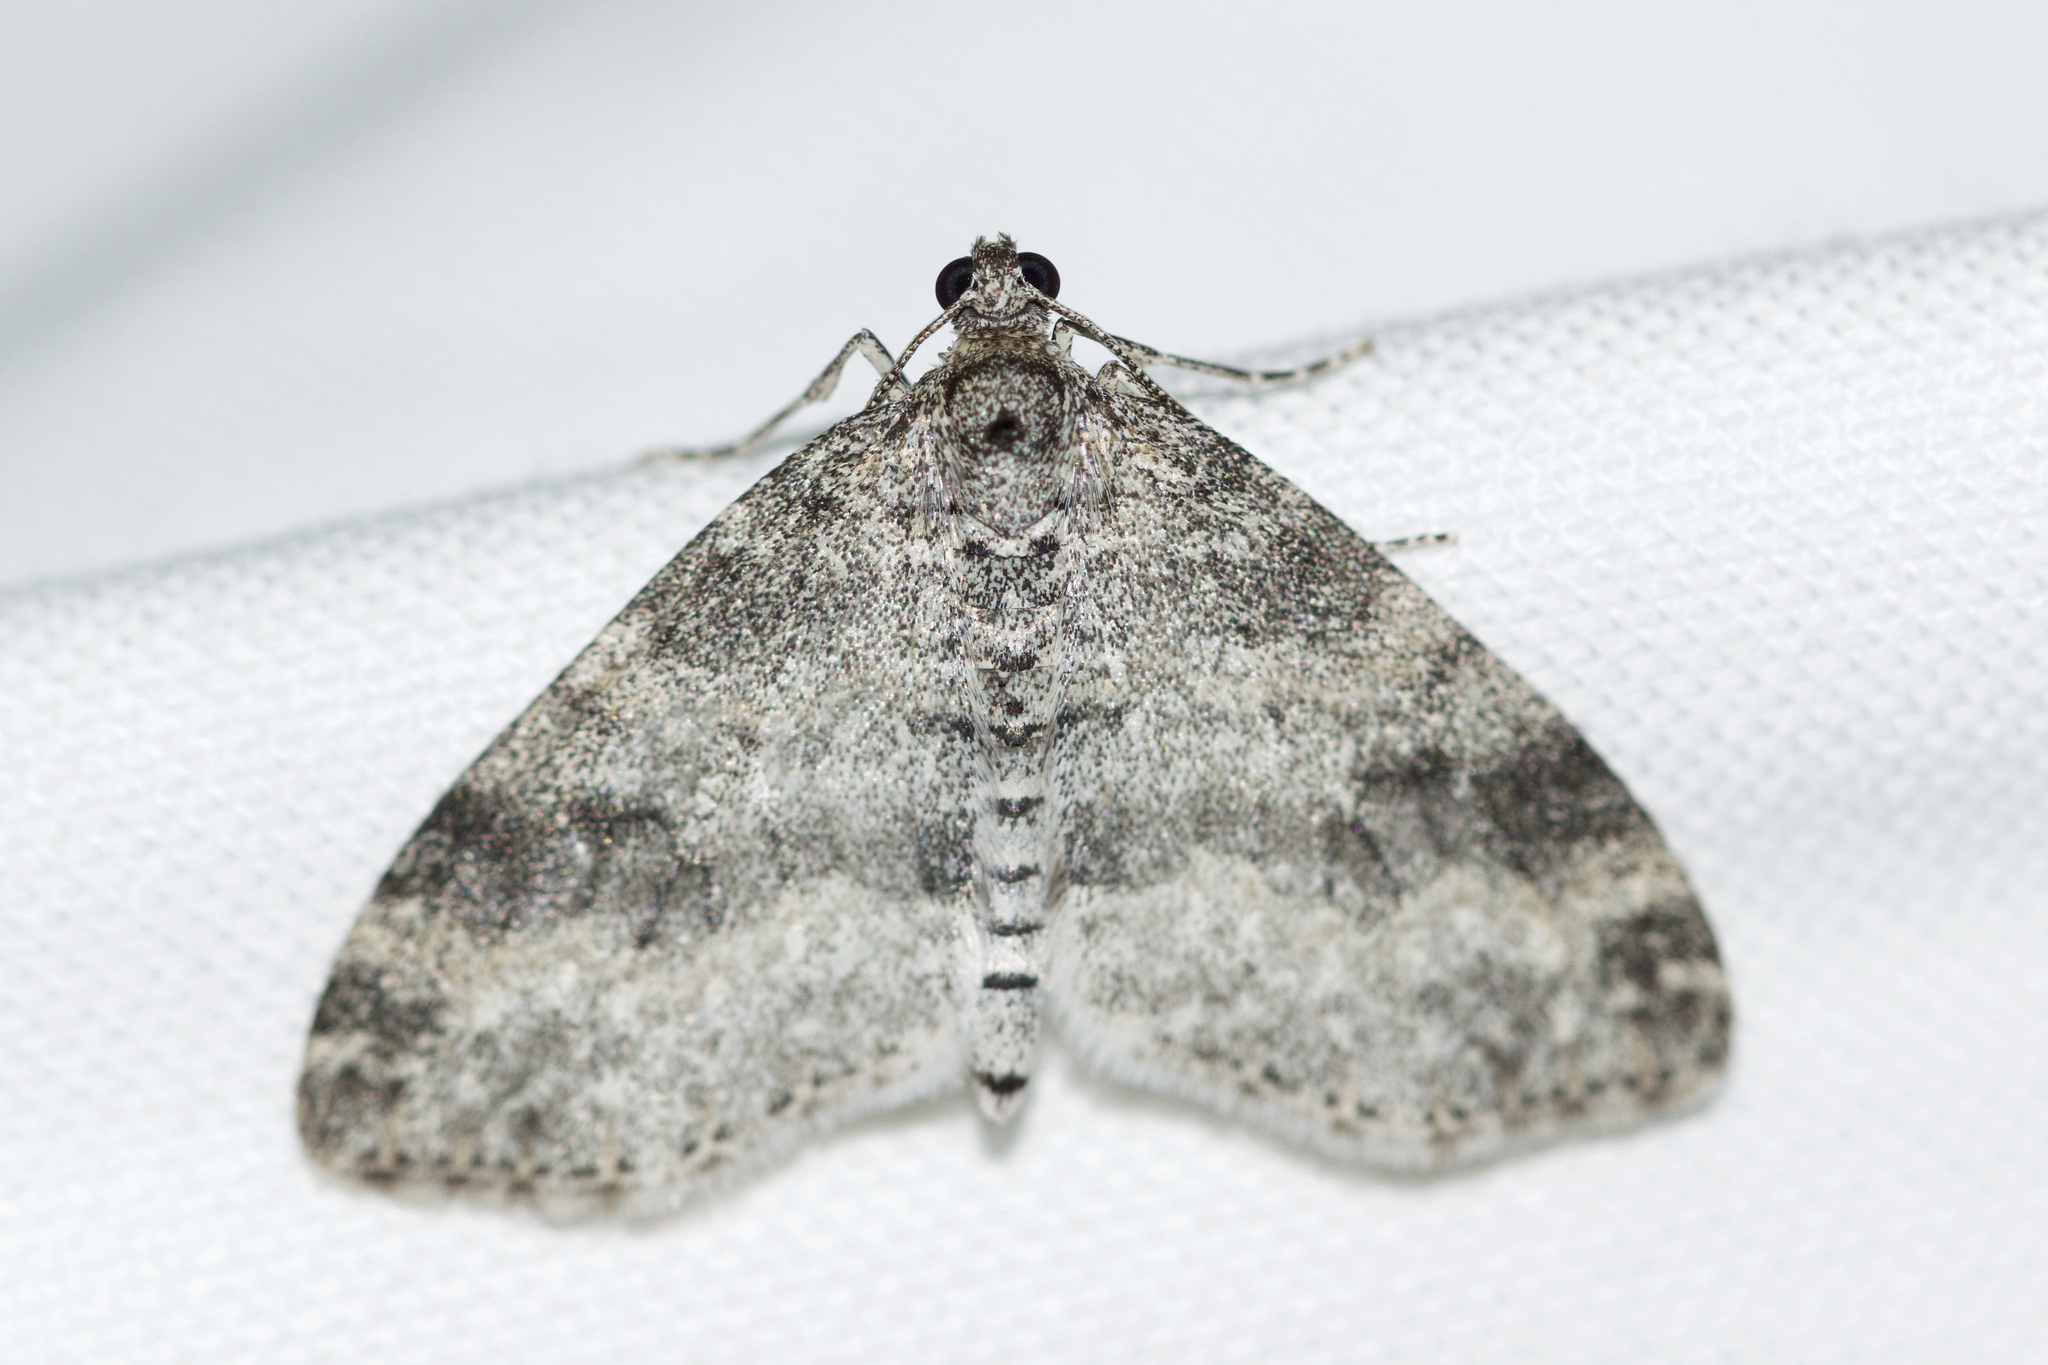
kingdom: Animalia
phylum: Arthropoda
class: Insecta
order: Lepidoptera
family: Geometridae
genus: Lobophora
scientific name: Lobophora nivigerata
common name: Powdered bigwing
